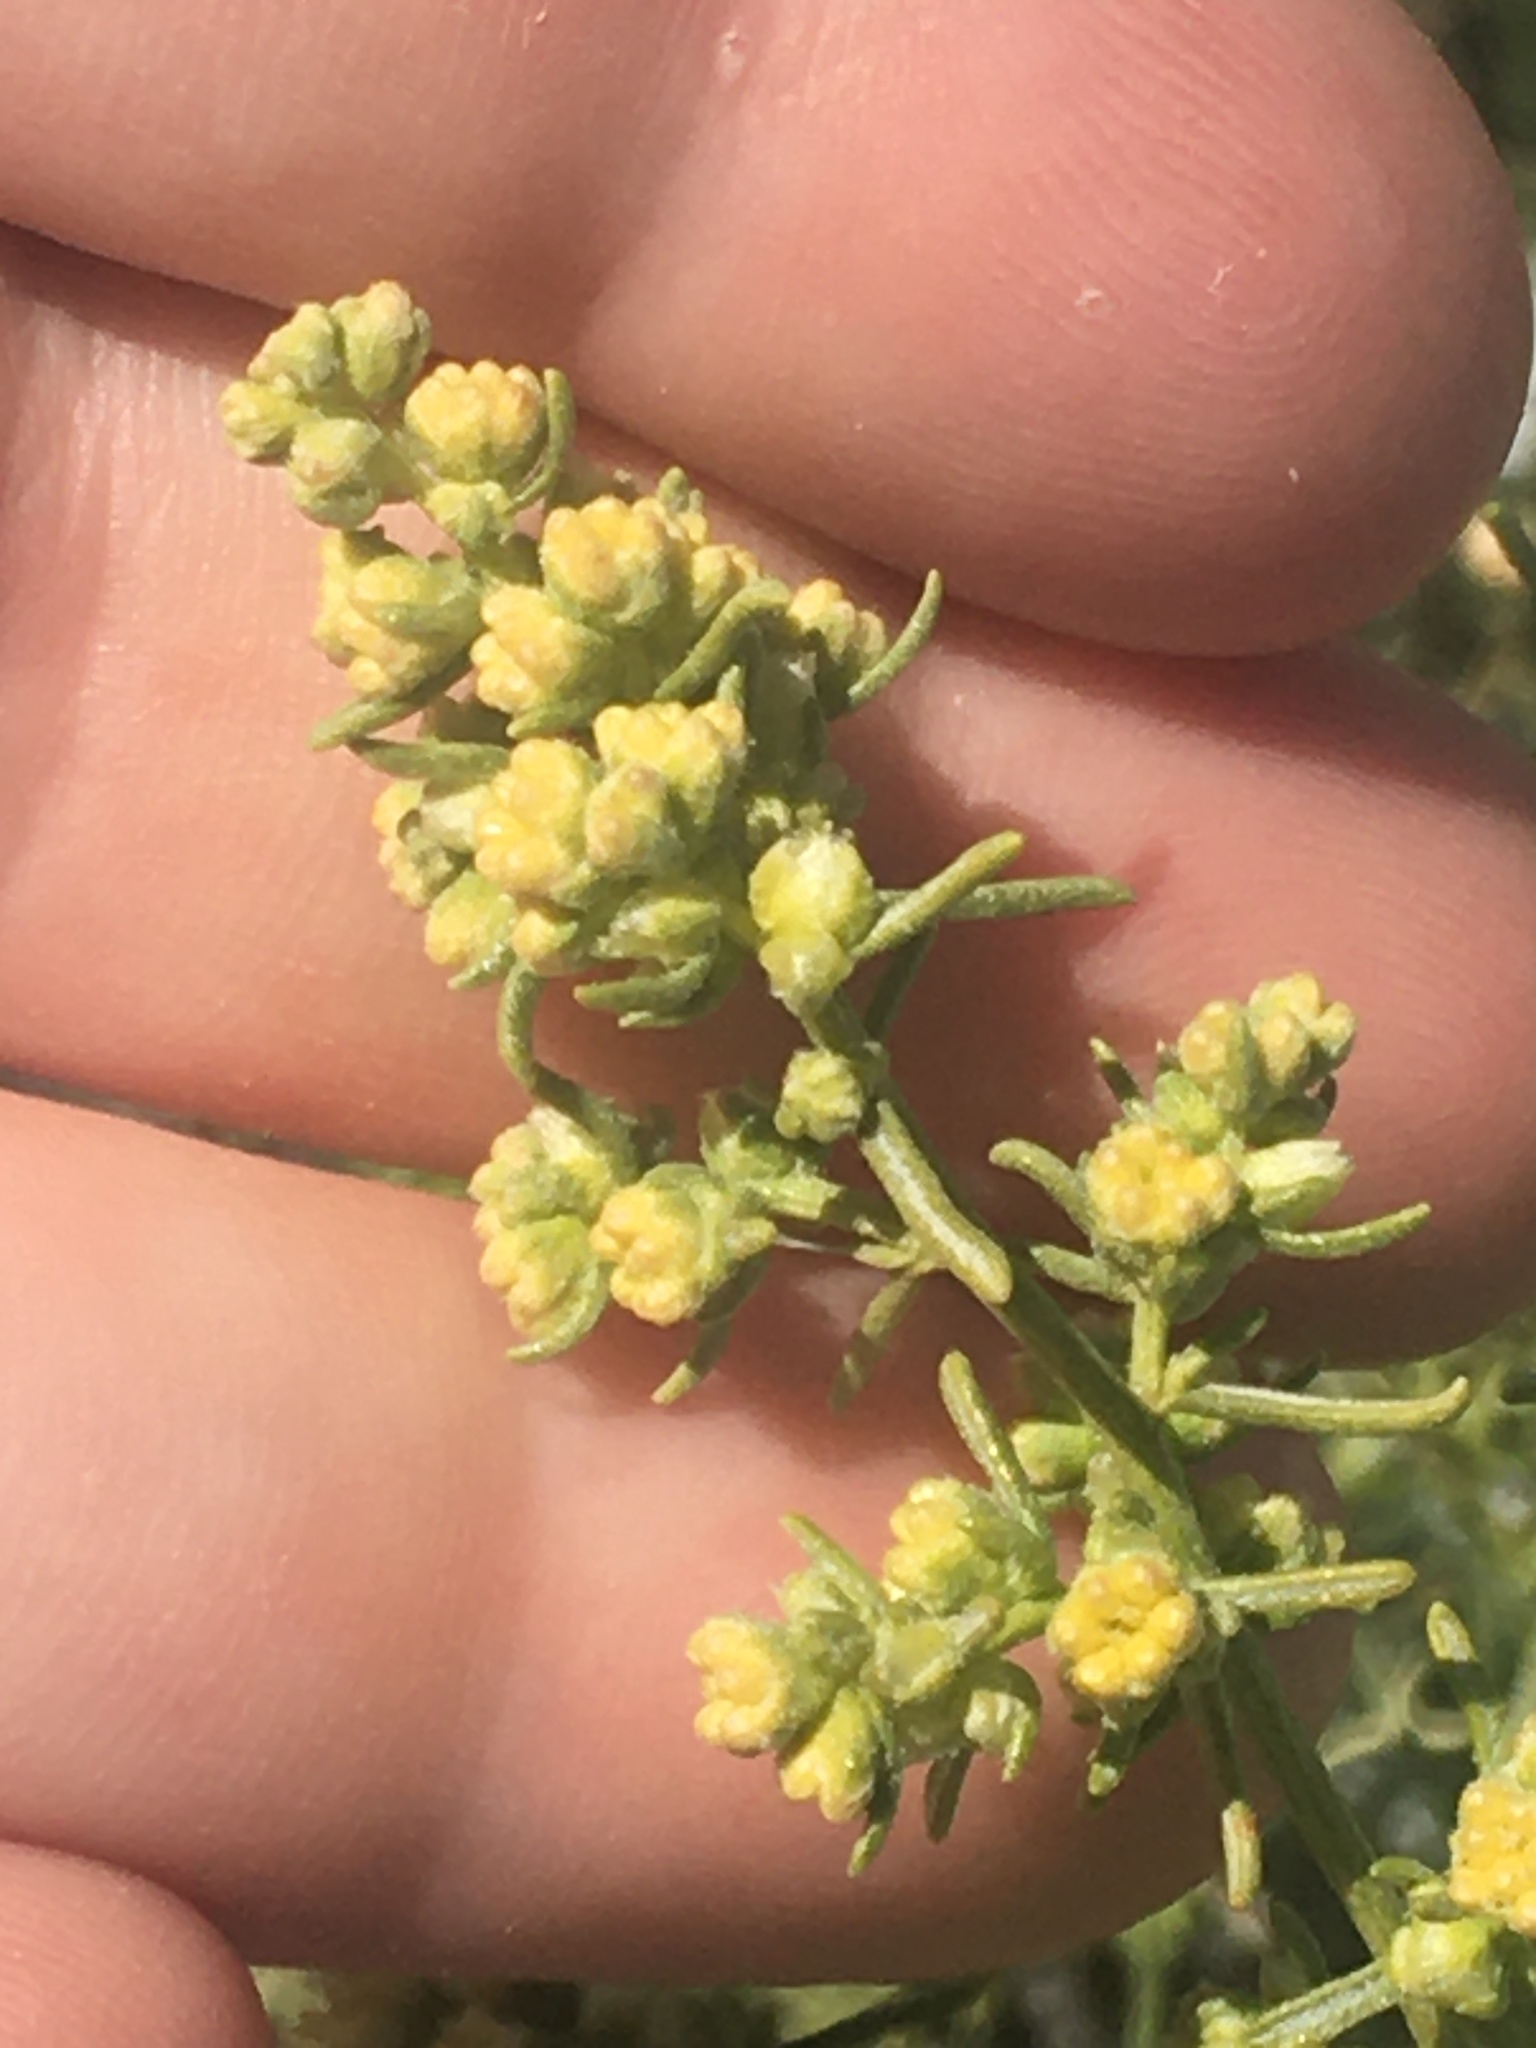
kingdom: Plantae
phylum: Tracheophyta
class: Magnoliopsida
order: Asterales
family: Asteraceae
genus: Ambrosia
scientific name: Ambrosia salsola
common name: Burrobrush
